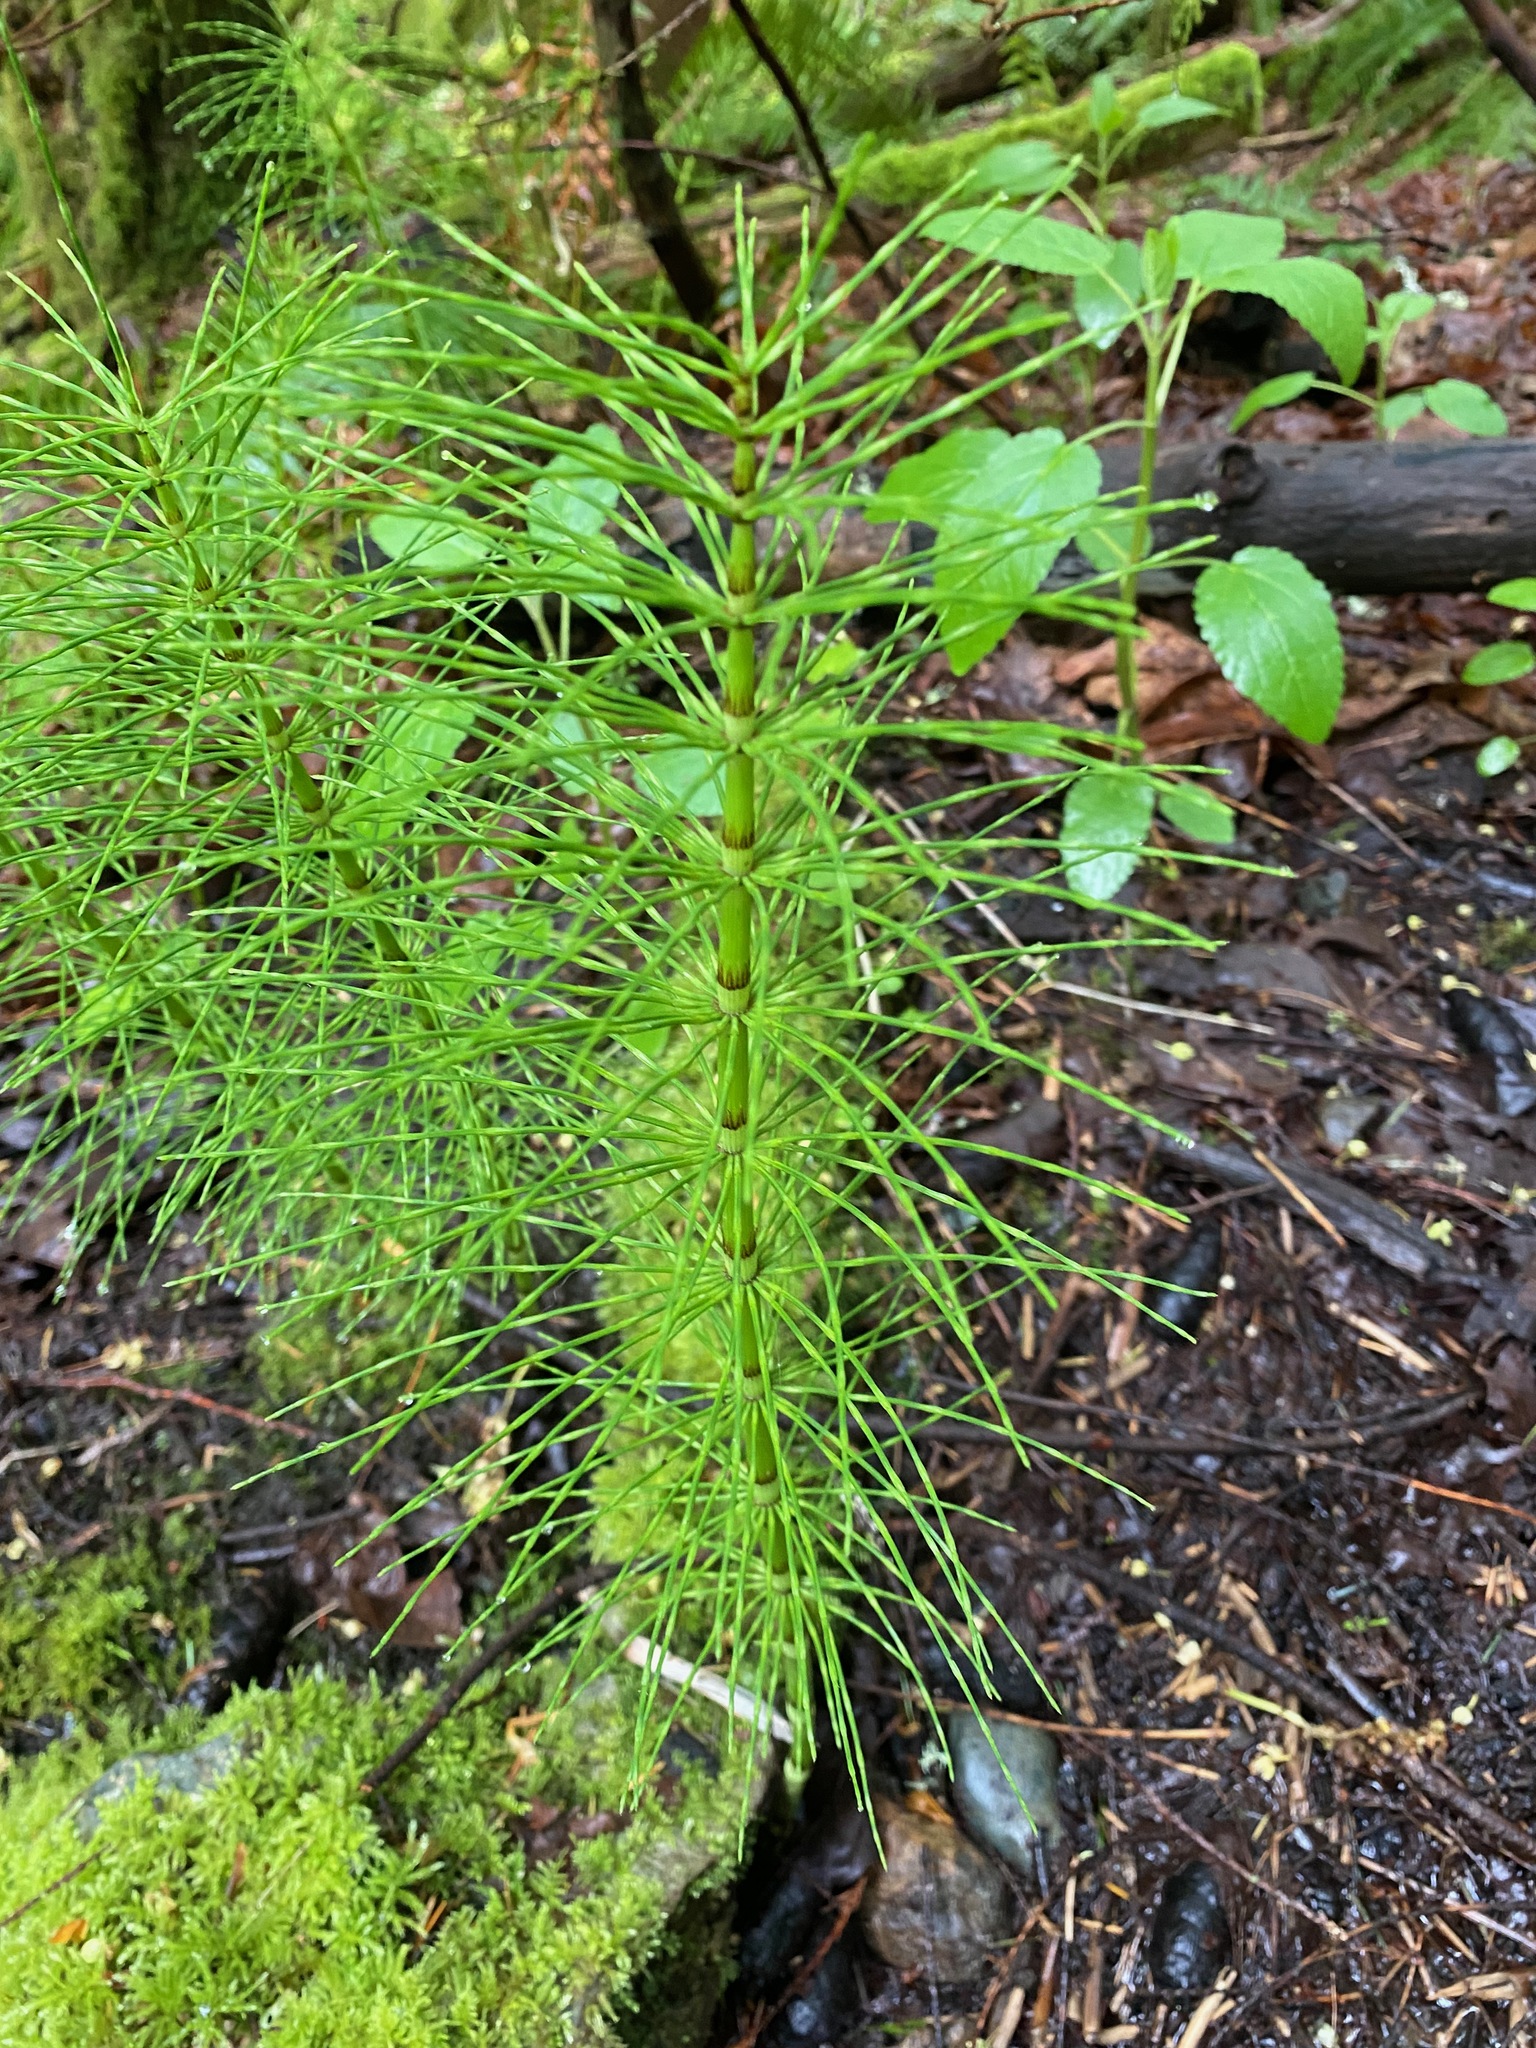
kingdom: Plantae
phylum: Tracheophyta
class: Polypodiopsida
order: Equisetales
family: Equisetaceae
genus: Equisetum
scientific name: Equisetum braunii
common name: Braun's horsetail
